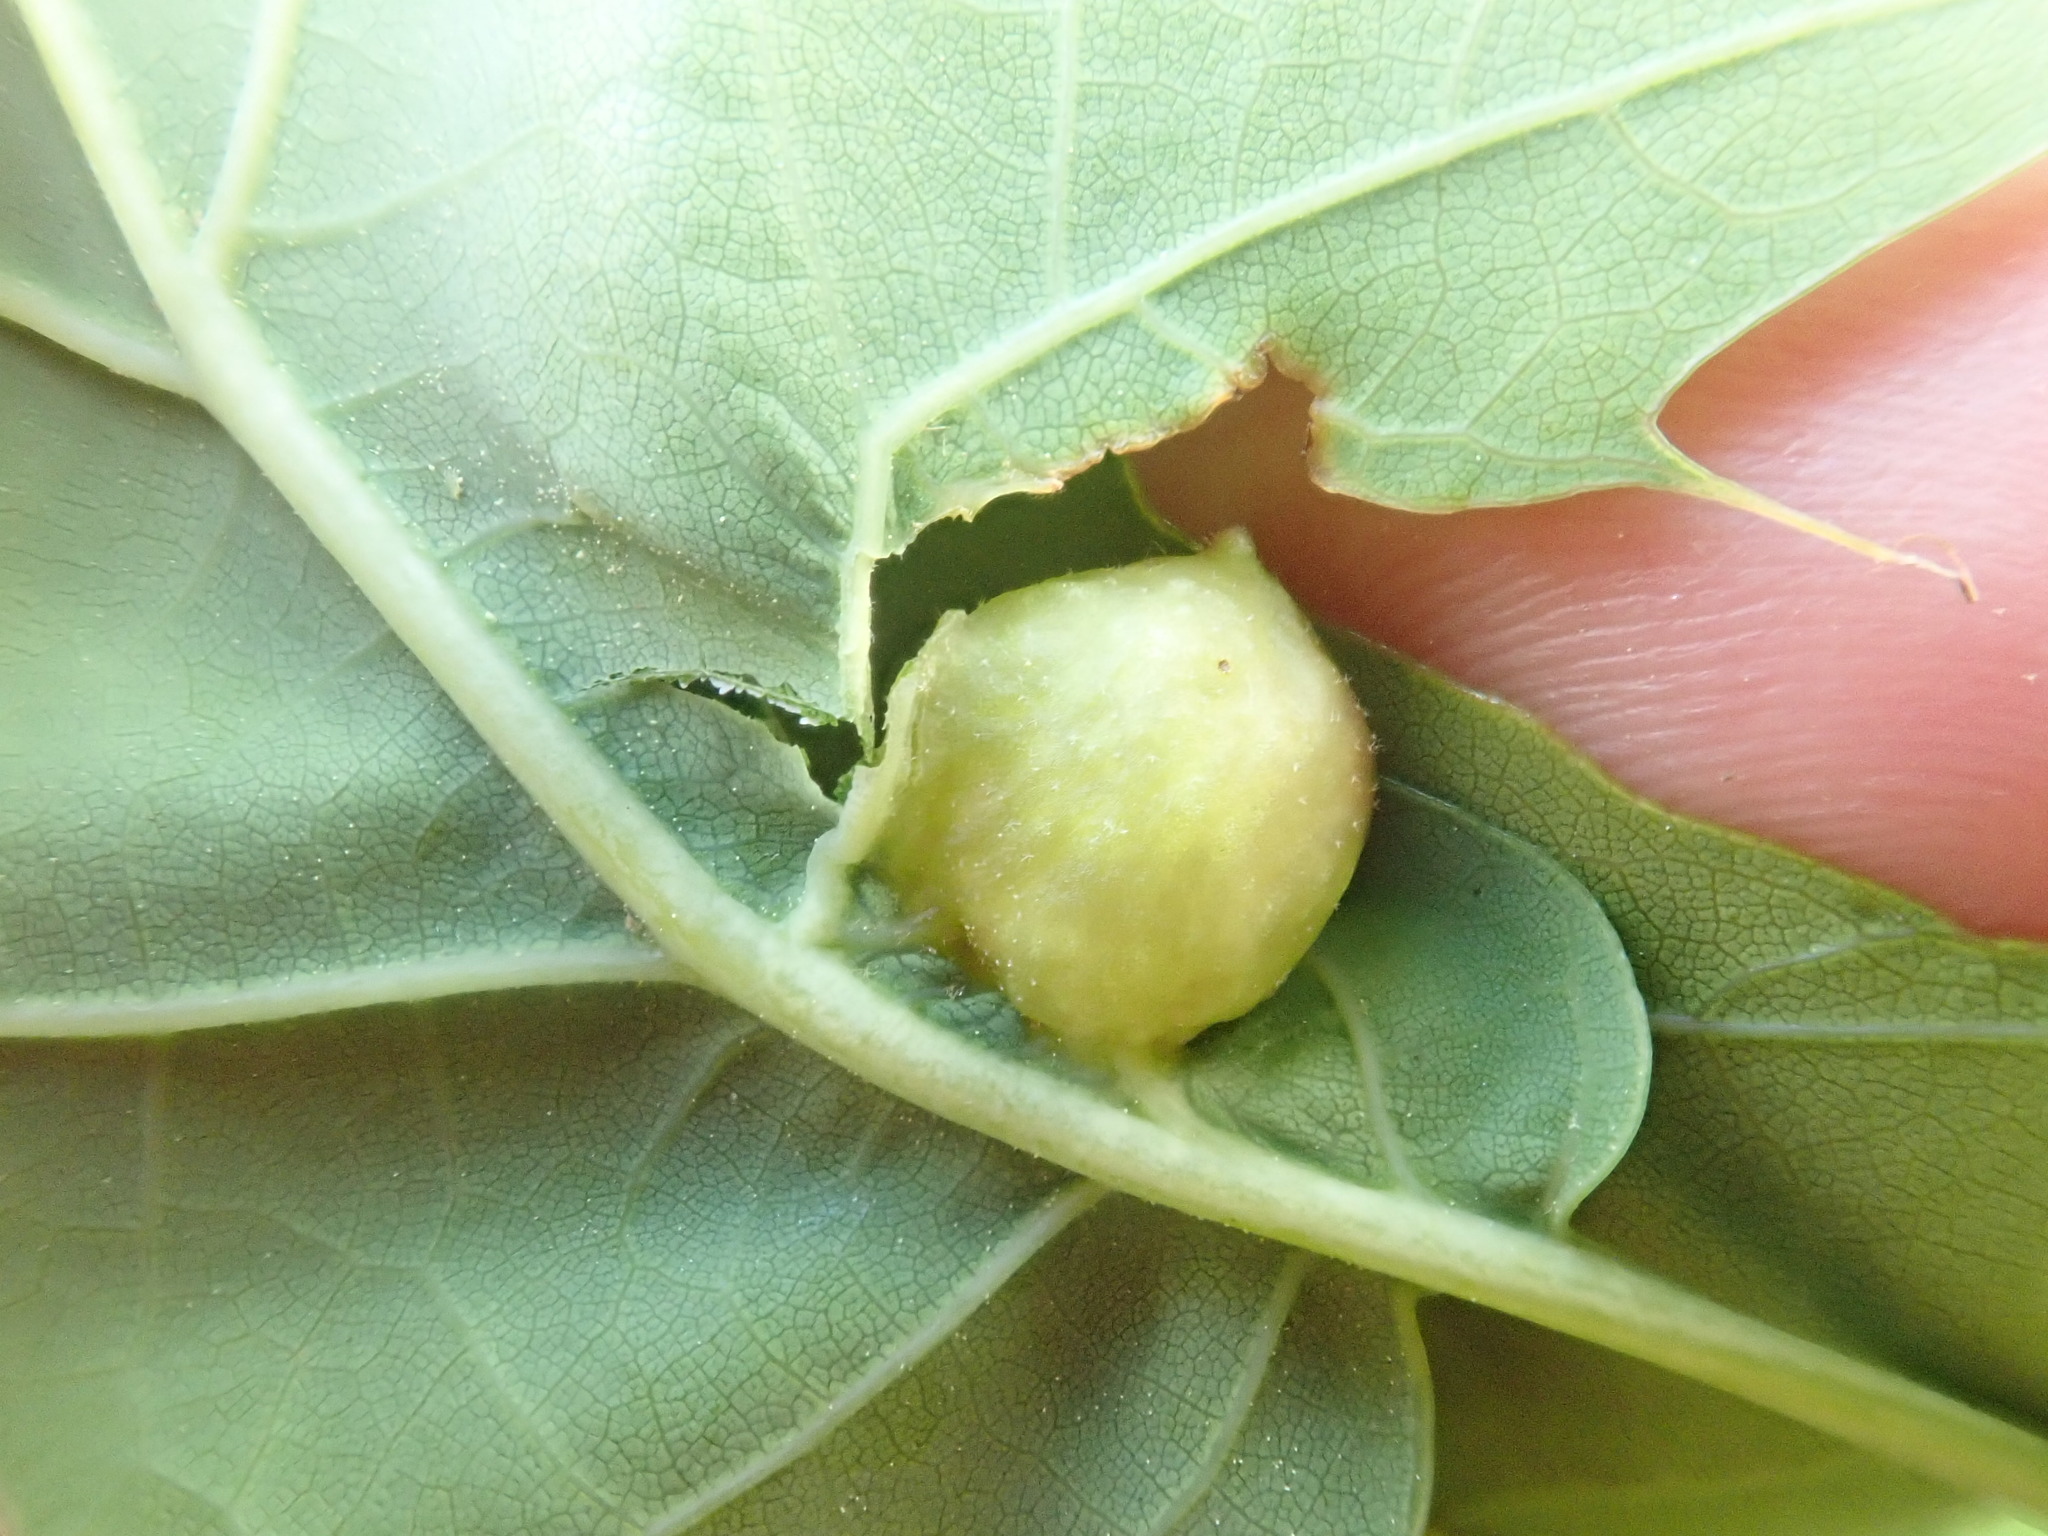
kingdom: Animalia
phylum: Arthropoda
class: Insecta
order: Hymenoptera
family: Cynipidae
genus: Dryocosmus
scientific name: Dryocosmus quercuspalustris
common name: Succulent oak gall wasp
